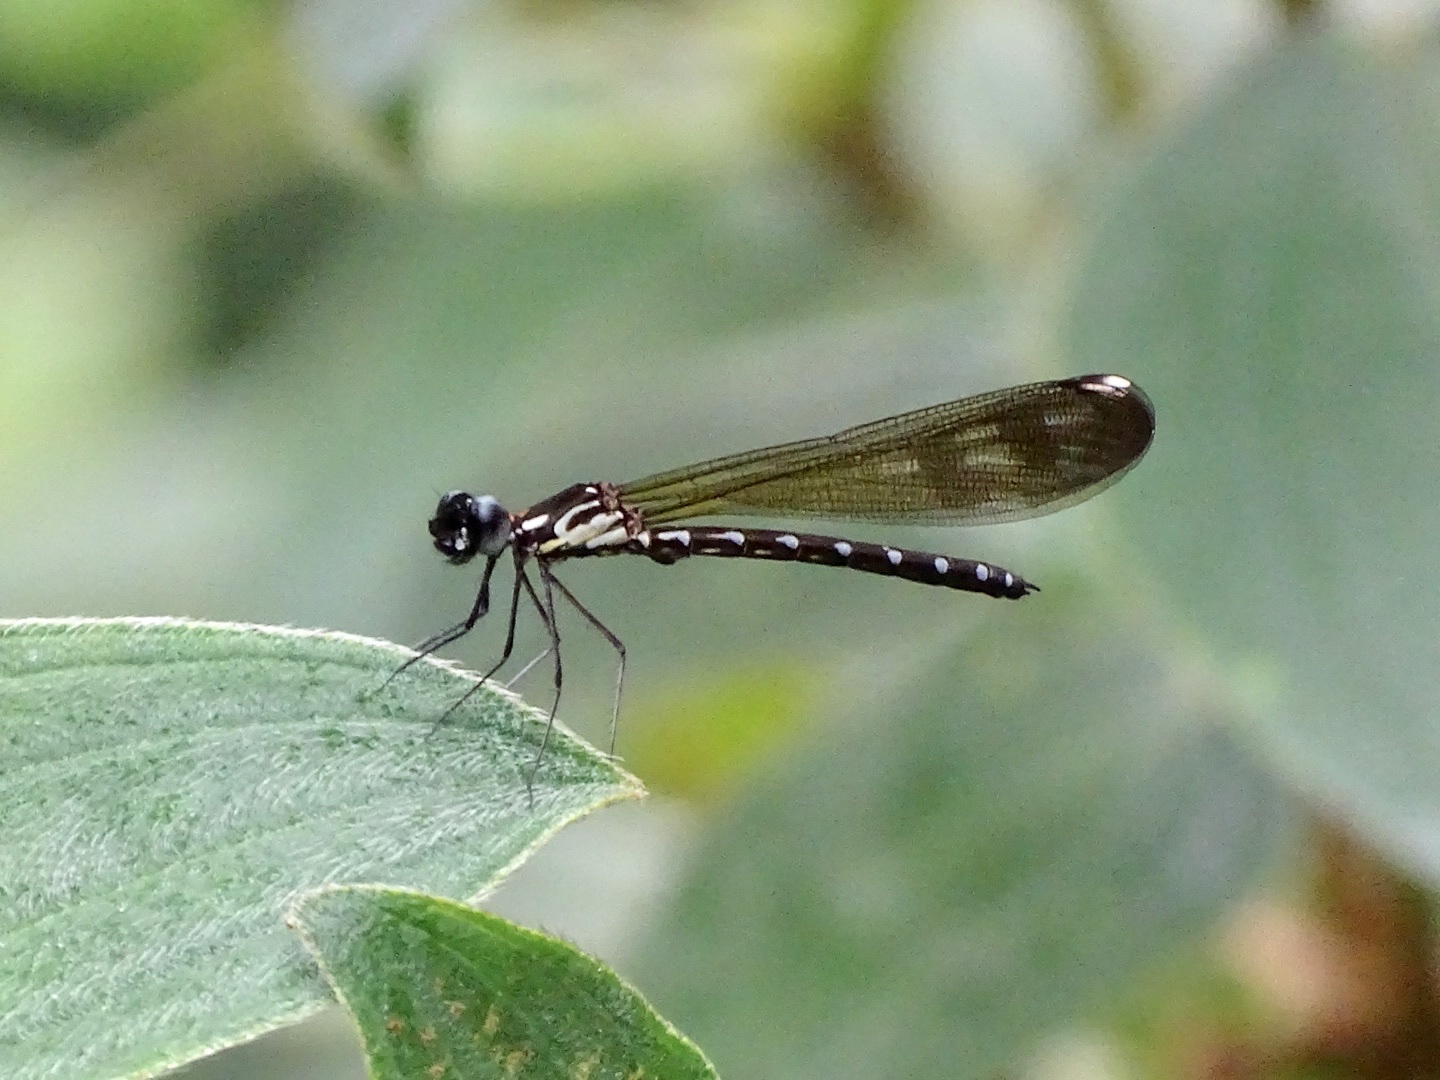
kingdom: Animalia
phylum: Arthropoda
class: Insecta
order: Odonata
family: Chlorocyphidae
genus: Heliocypha
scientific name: Heliocypha perforata
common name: Common blue jewel
